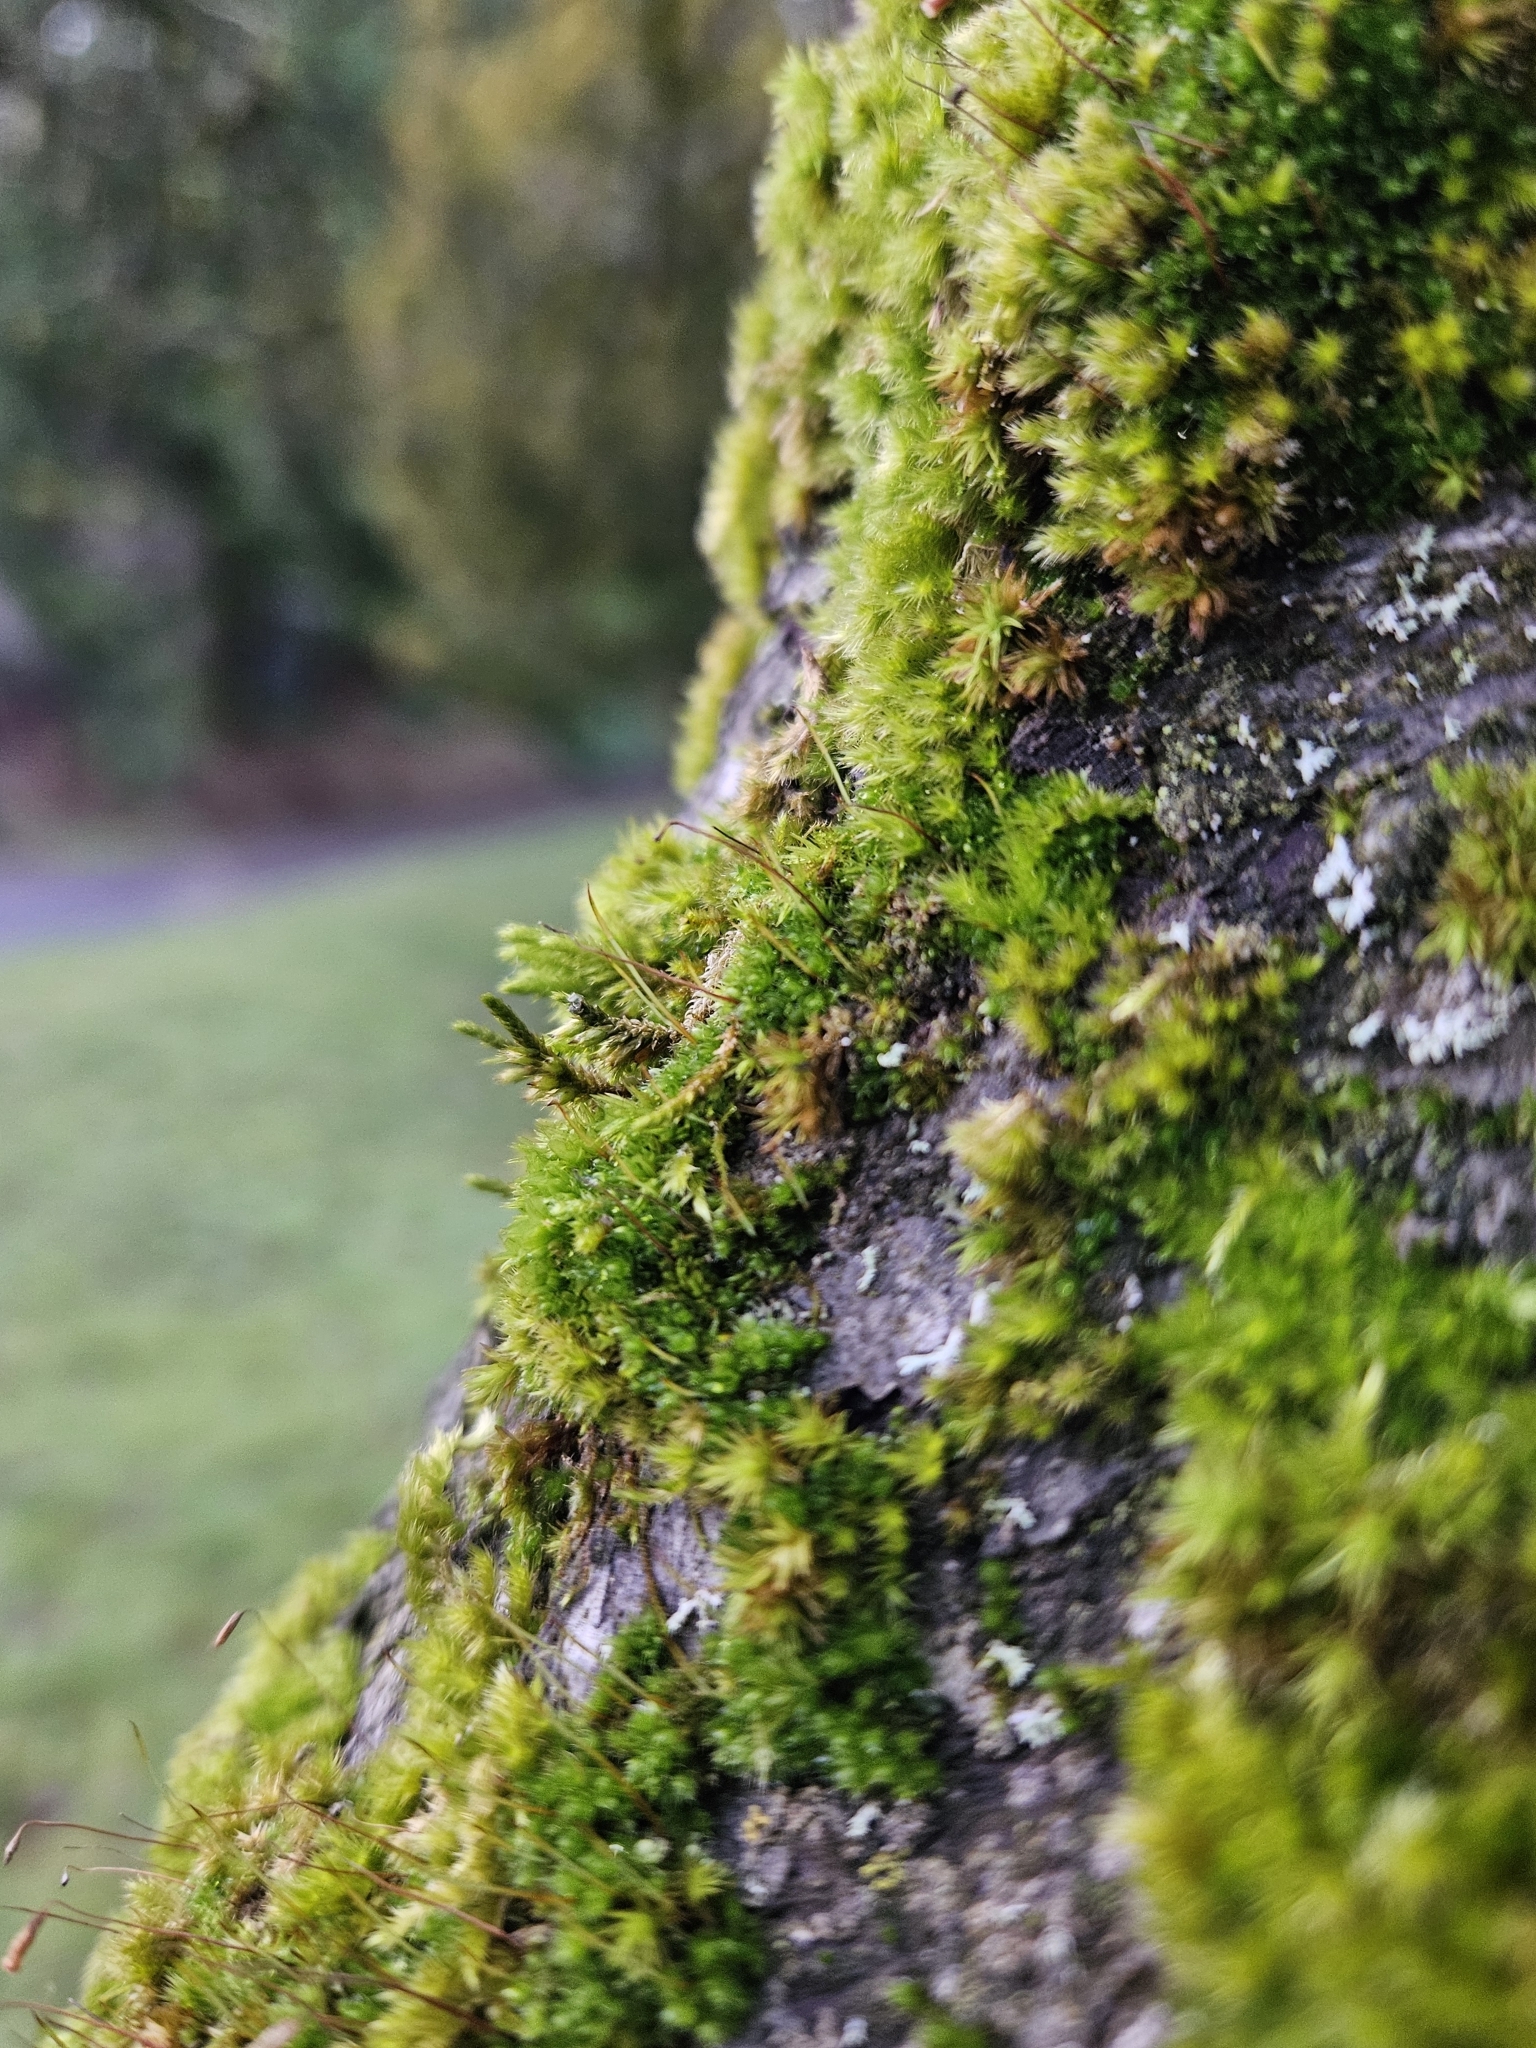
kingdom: Plantae
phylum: Bryophyta
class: Bryopsida
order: Hypnales
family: Cryphaeaceae
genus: Cryphaea
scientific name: Cryphaea heteromalla
